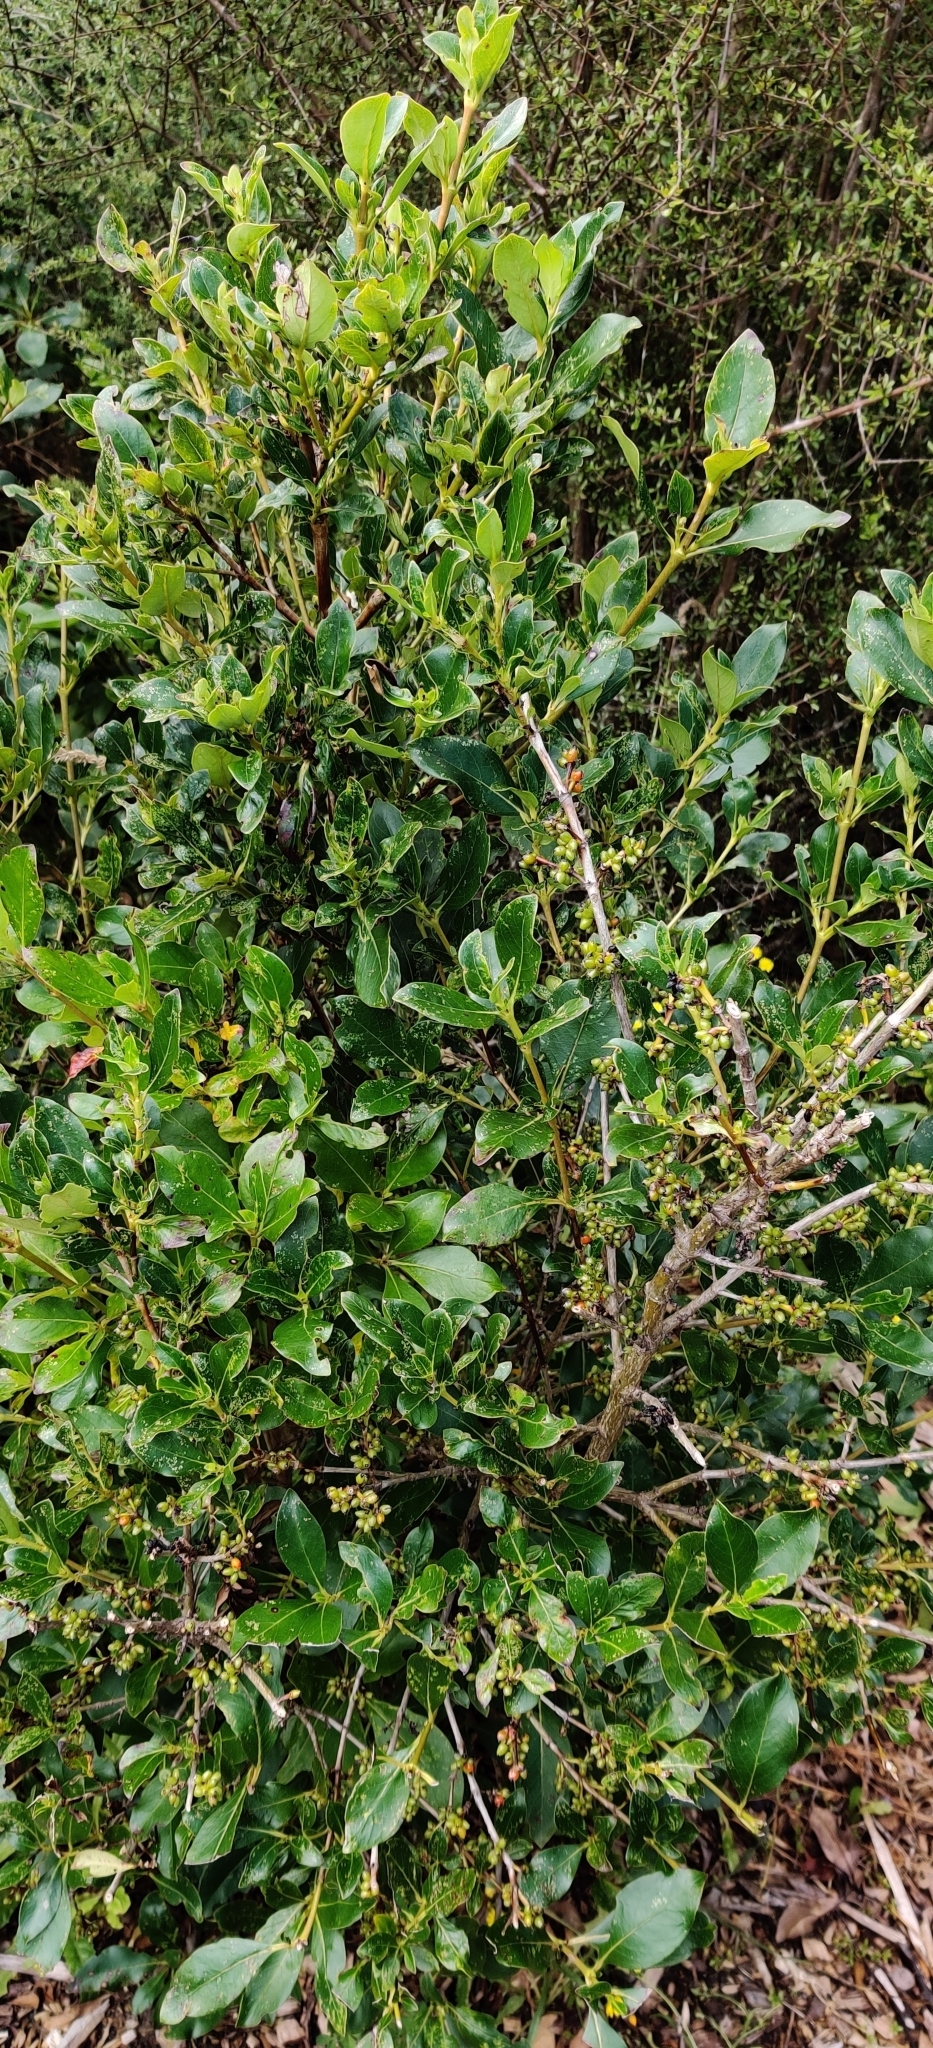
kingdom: Plantae
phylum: Tracheophyta
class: Magnoliopsida
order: Gentianales
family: Rubiaceae
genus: Coprosma
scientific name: Coprosma robusta
